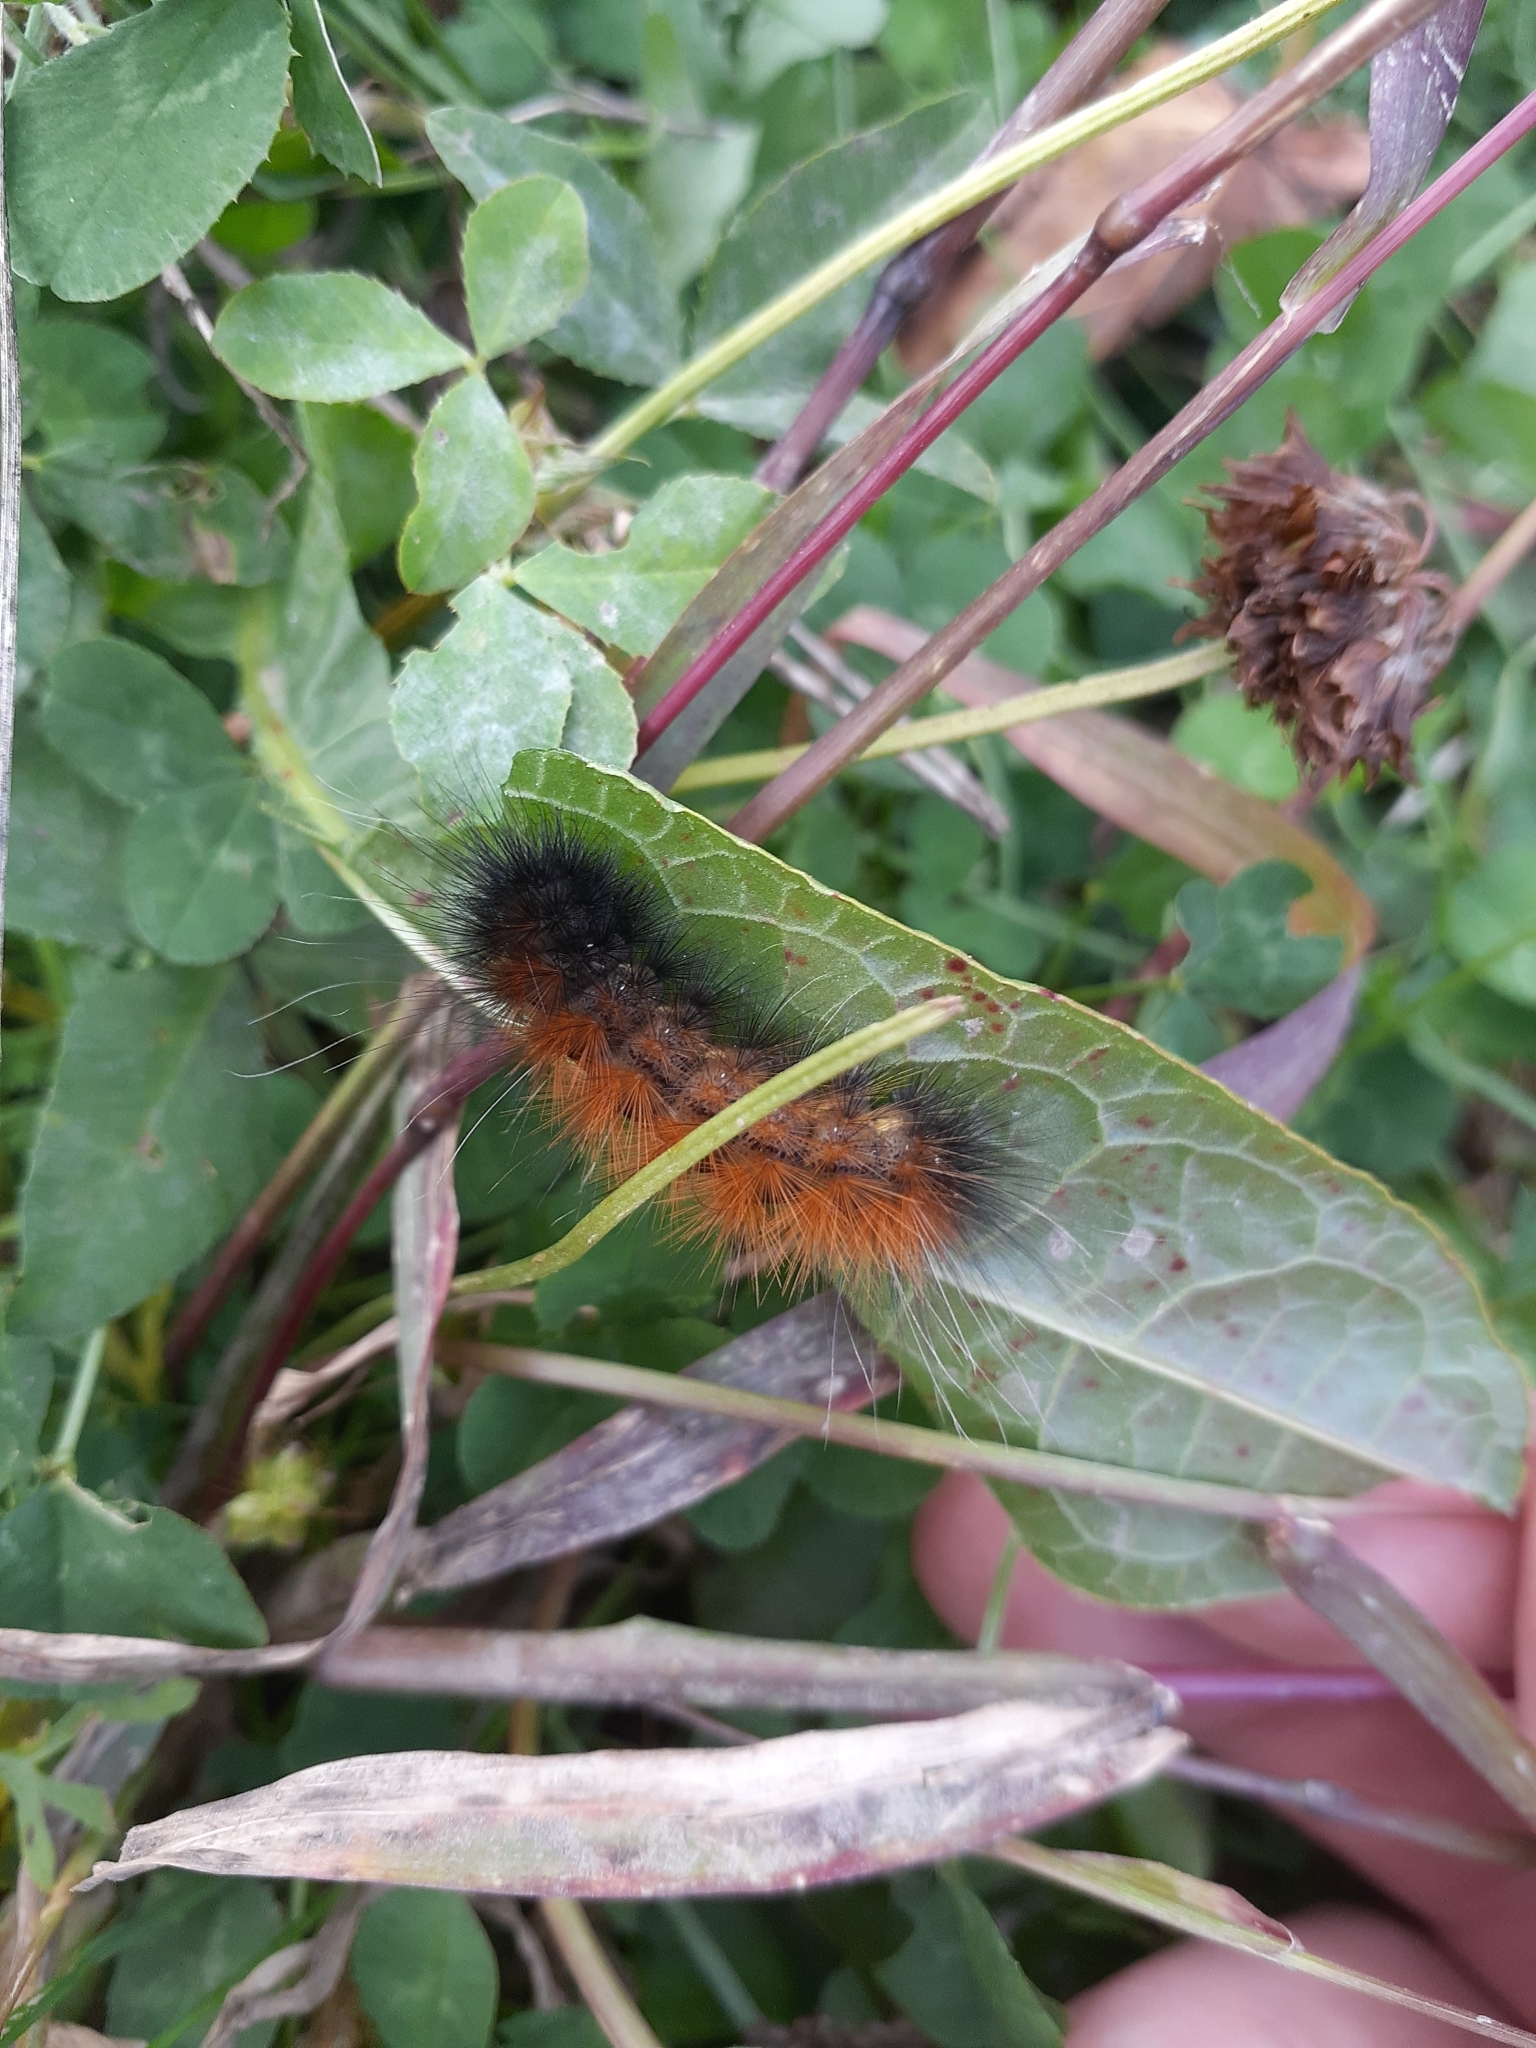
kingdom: Animalia
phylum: Arthropoda
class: Insecta
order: Lepidoptera
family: Erebidae
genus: Spilosoma
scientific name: Spilosoma virginica
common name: Virginia tiger moth
